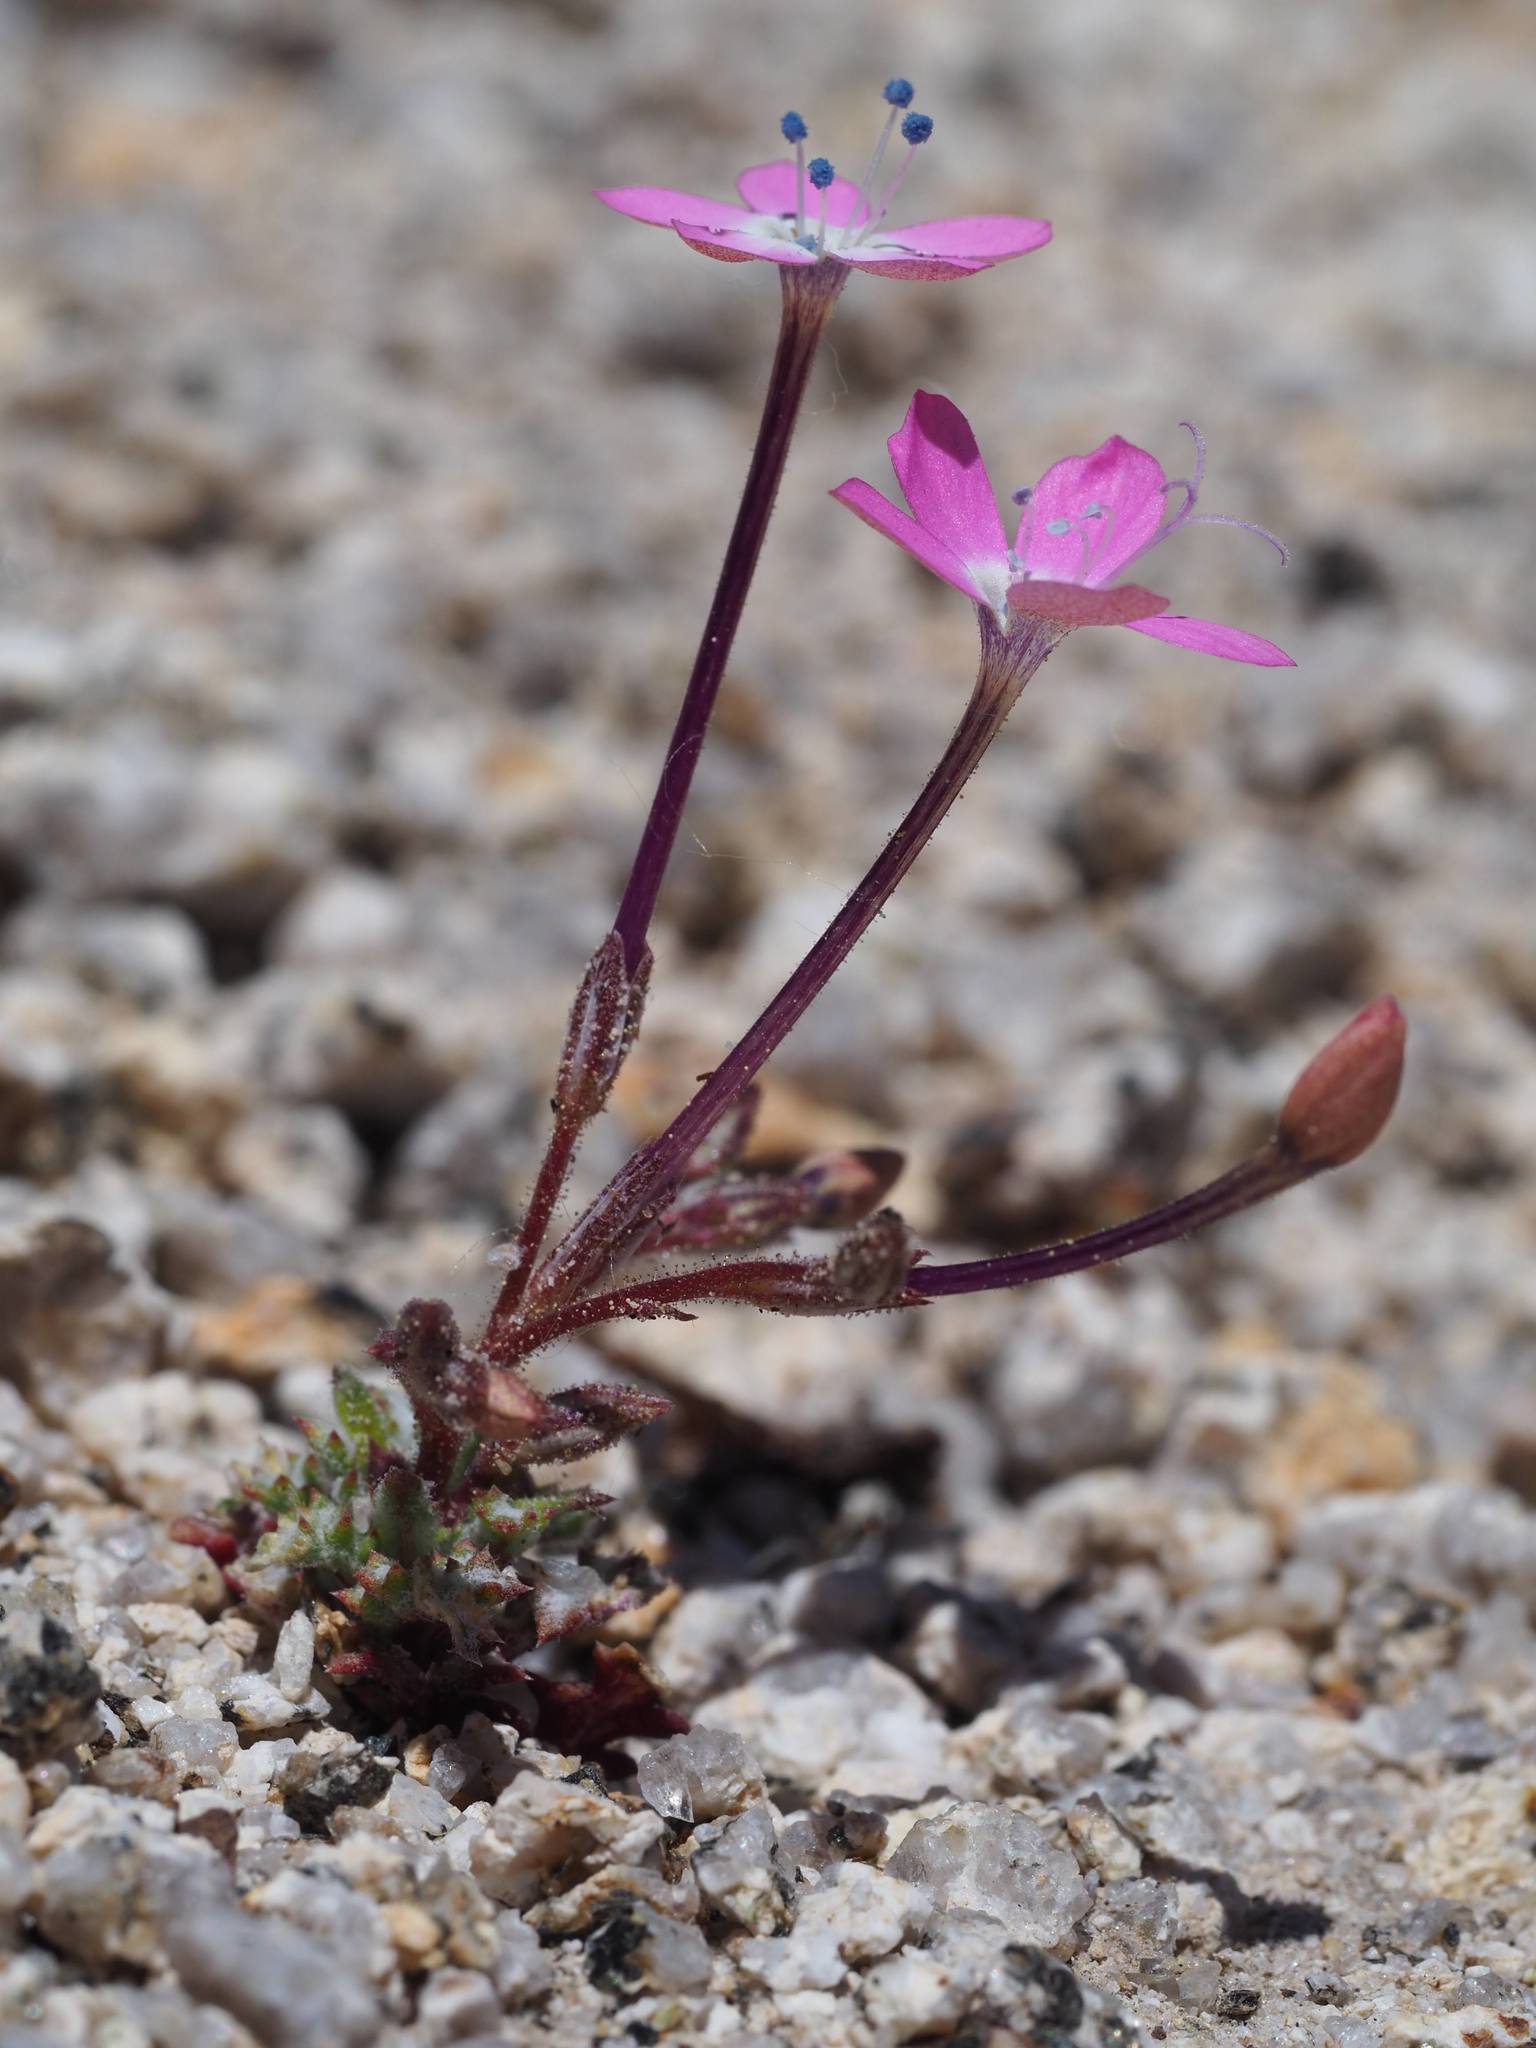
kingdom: Plantae
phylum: Tracheophyta
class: Magnoliopsida
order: Ericales
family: Polemoniaceae
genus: Gilia
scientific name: Gilia leptantha
